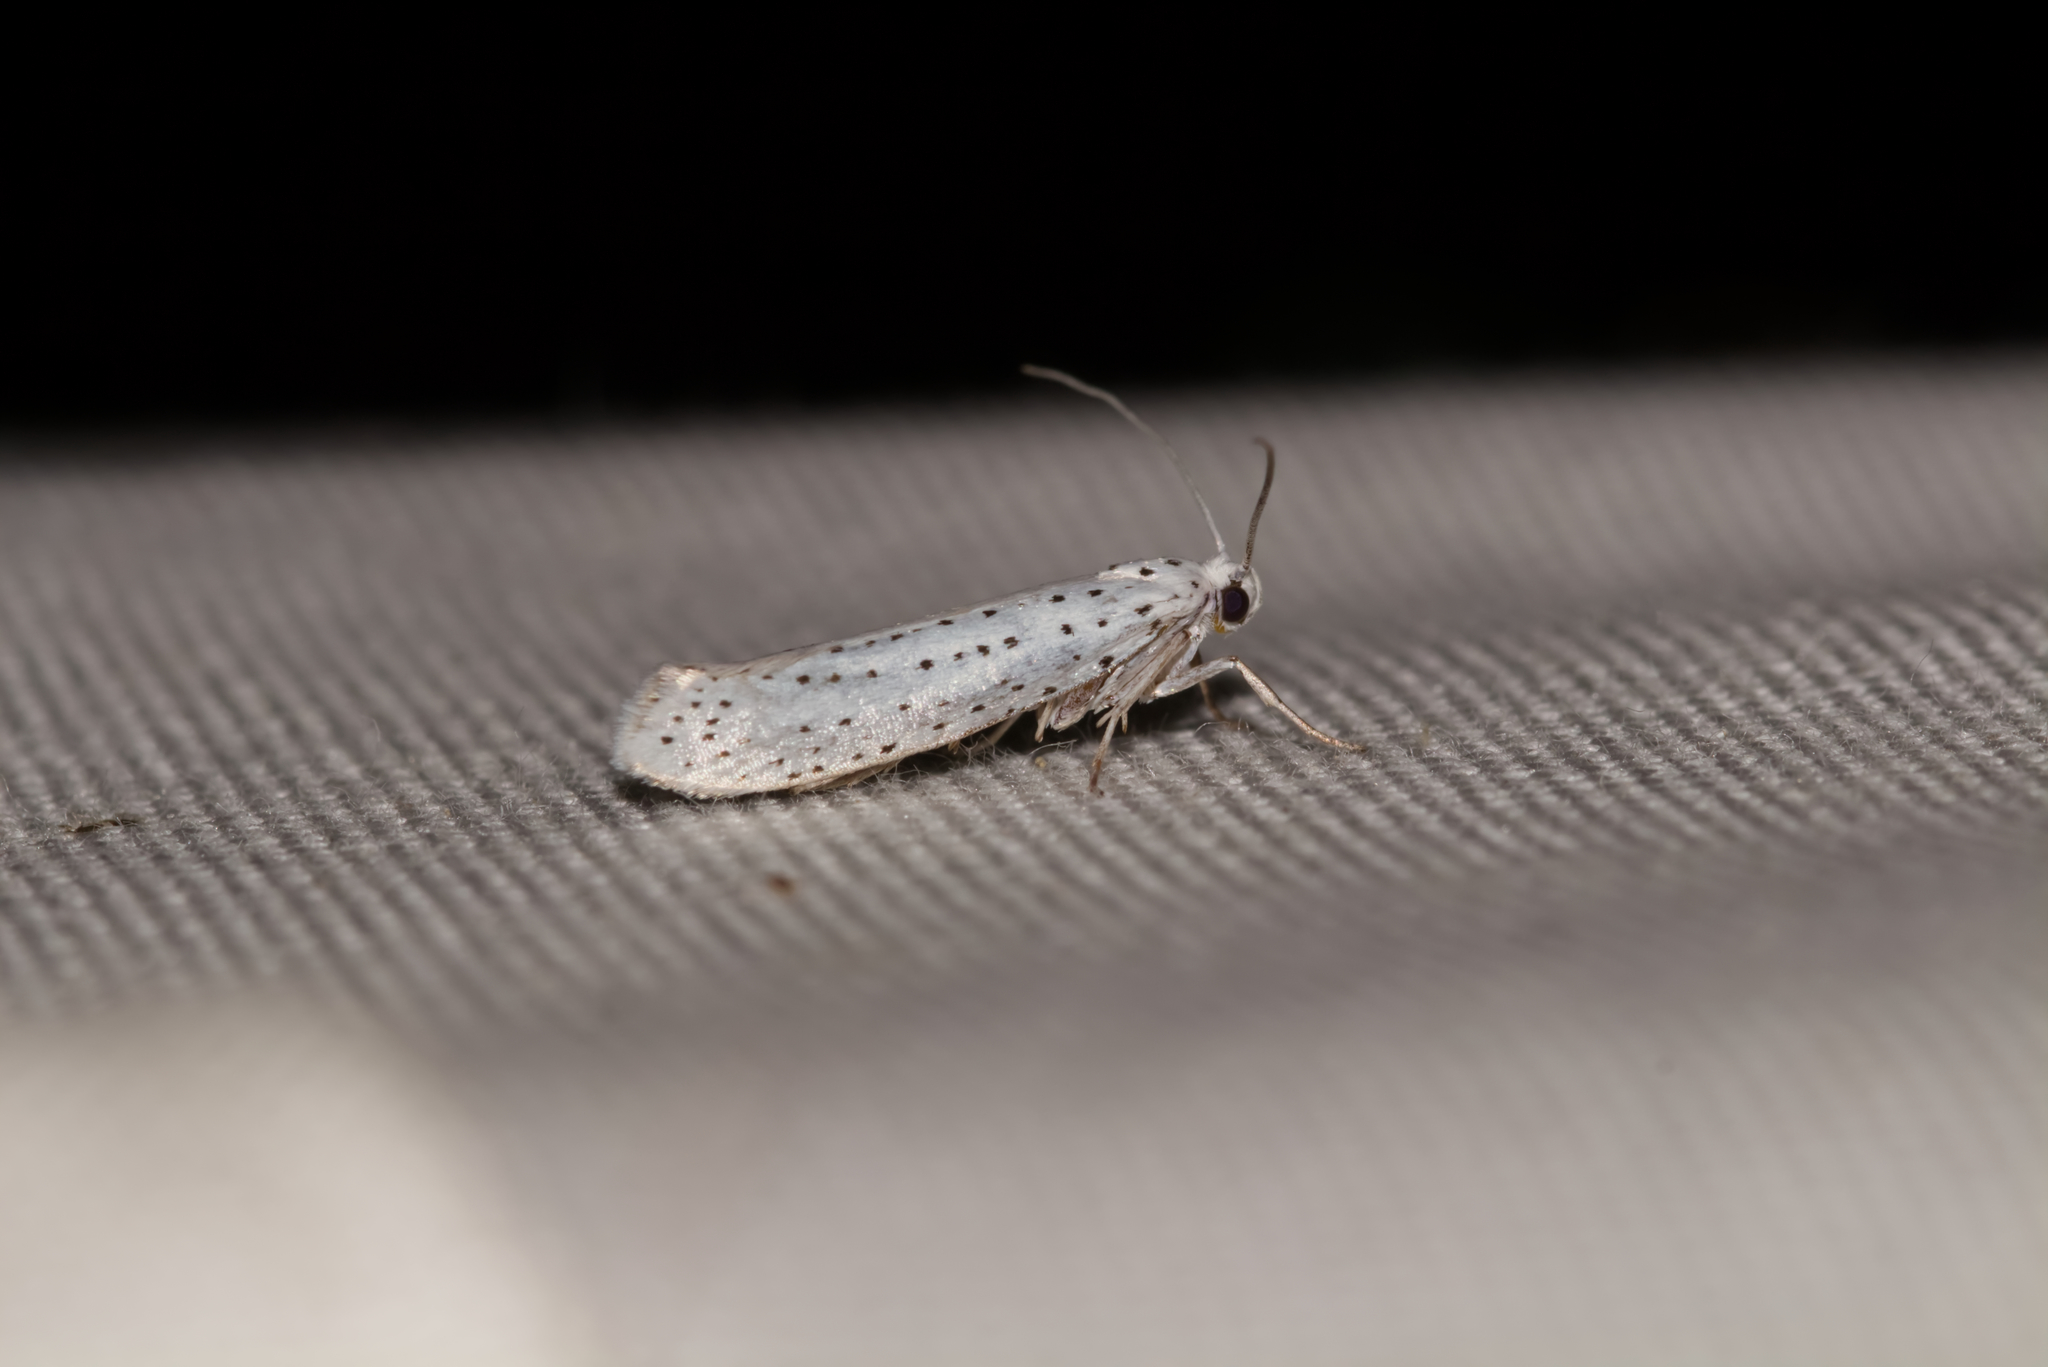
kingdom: Animalia
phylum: Arthropoda
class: Insecta
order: Lepidoptera
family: Yponomeutidae
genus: Yponomeuta
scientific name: Yponomeuta evonymella
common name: Bird-cherry ermine
